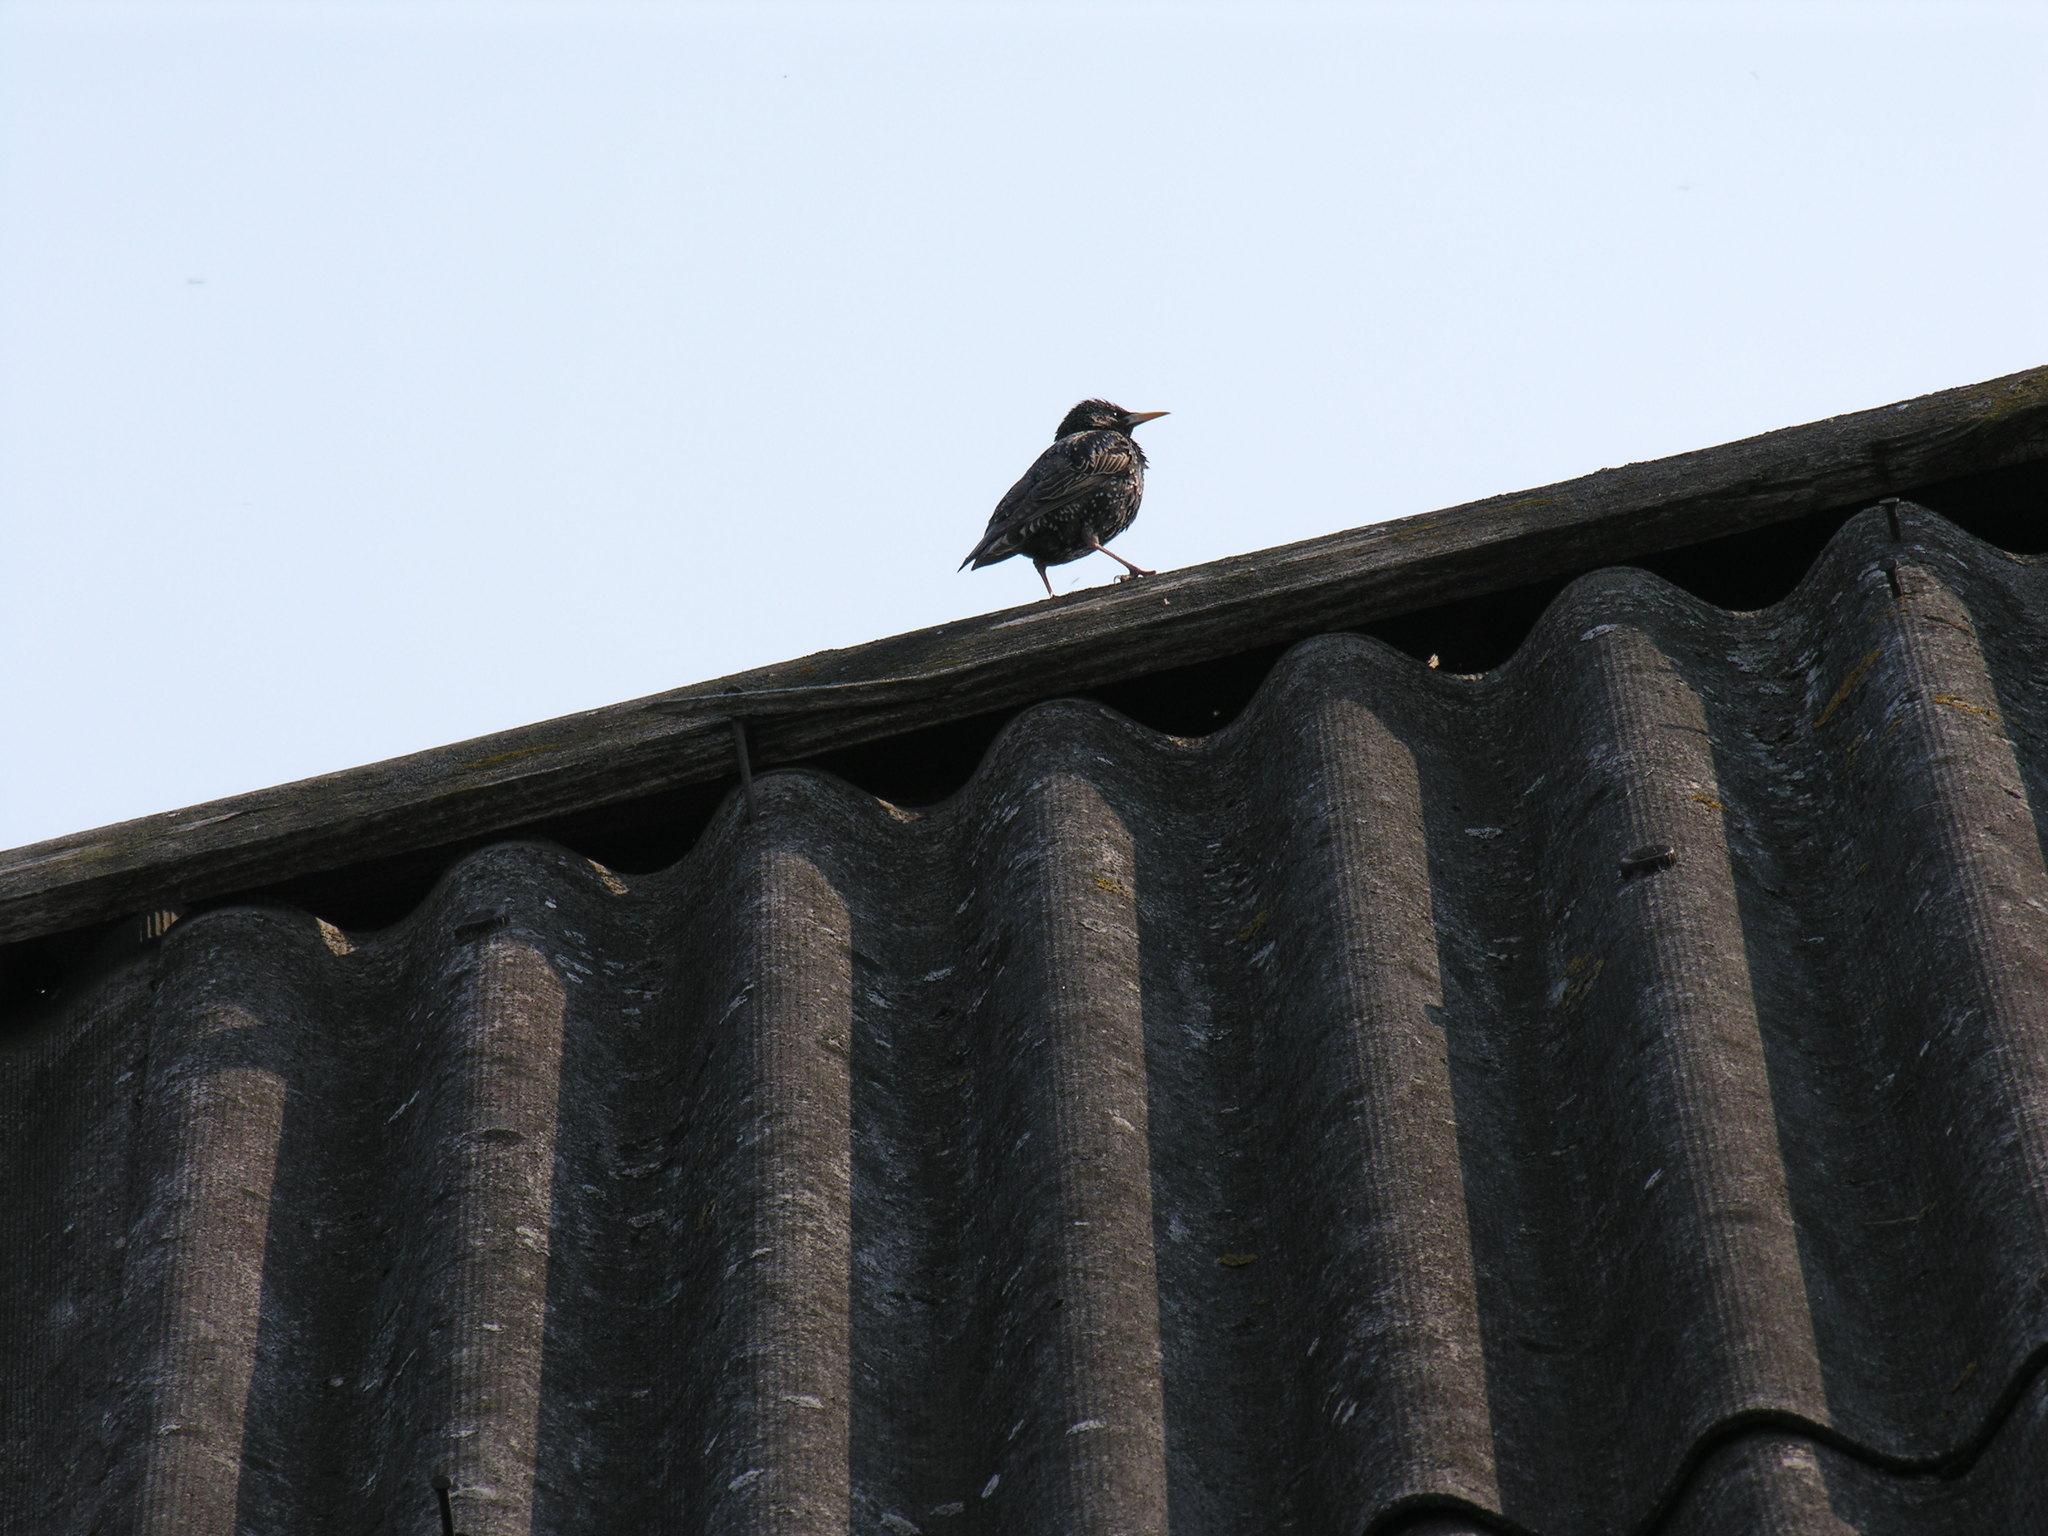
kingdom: Animalia
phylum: Chordata
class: Aves
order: Passeriformes
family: Sturnidae
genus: Sturnus
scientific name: Sturnus vulgaris
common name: Common starling
